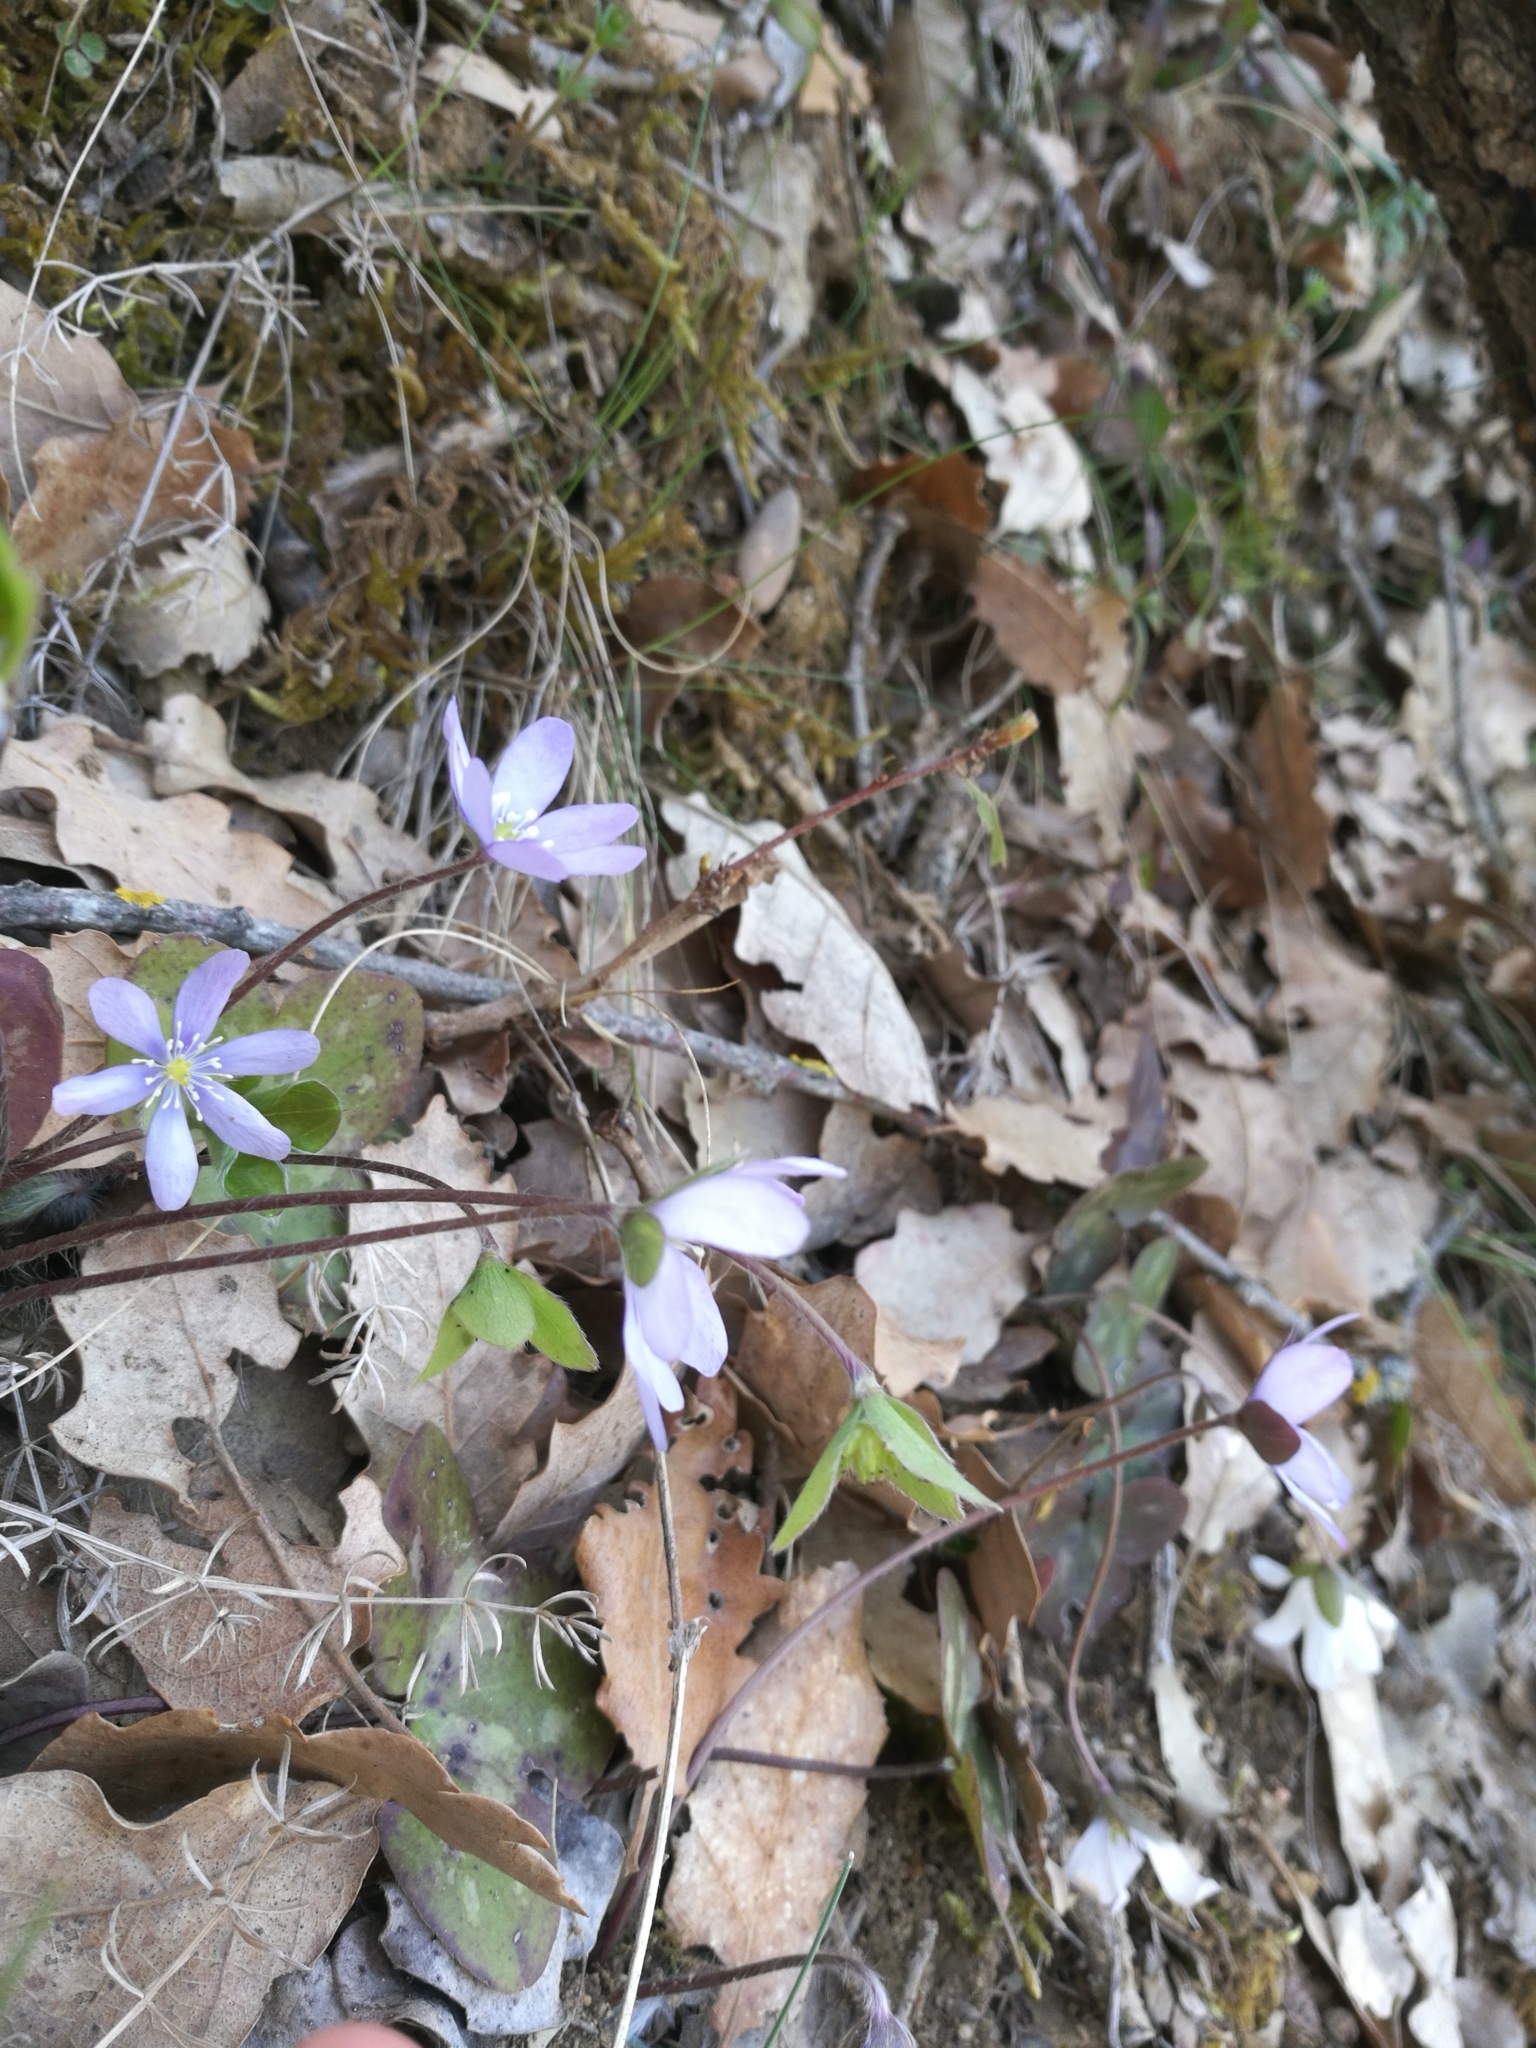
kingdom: Plantae
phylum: Tracheophyta
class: Magnoliopsida
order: Ranunculales
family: Ranunculaceae
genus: Hepatica
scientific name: Hepatica nobilis
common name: Liverleaf
